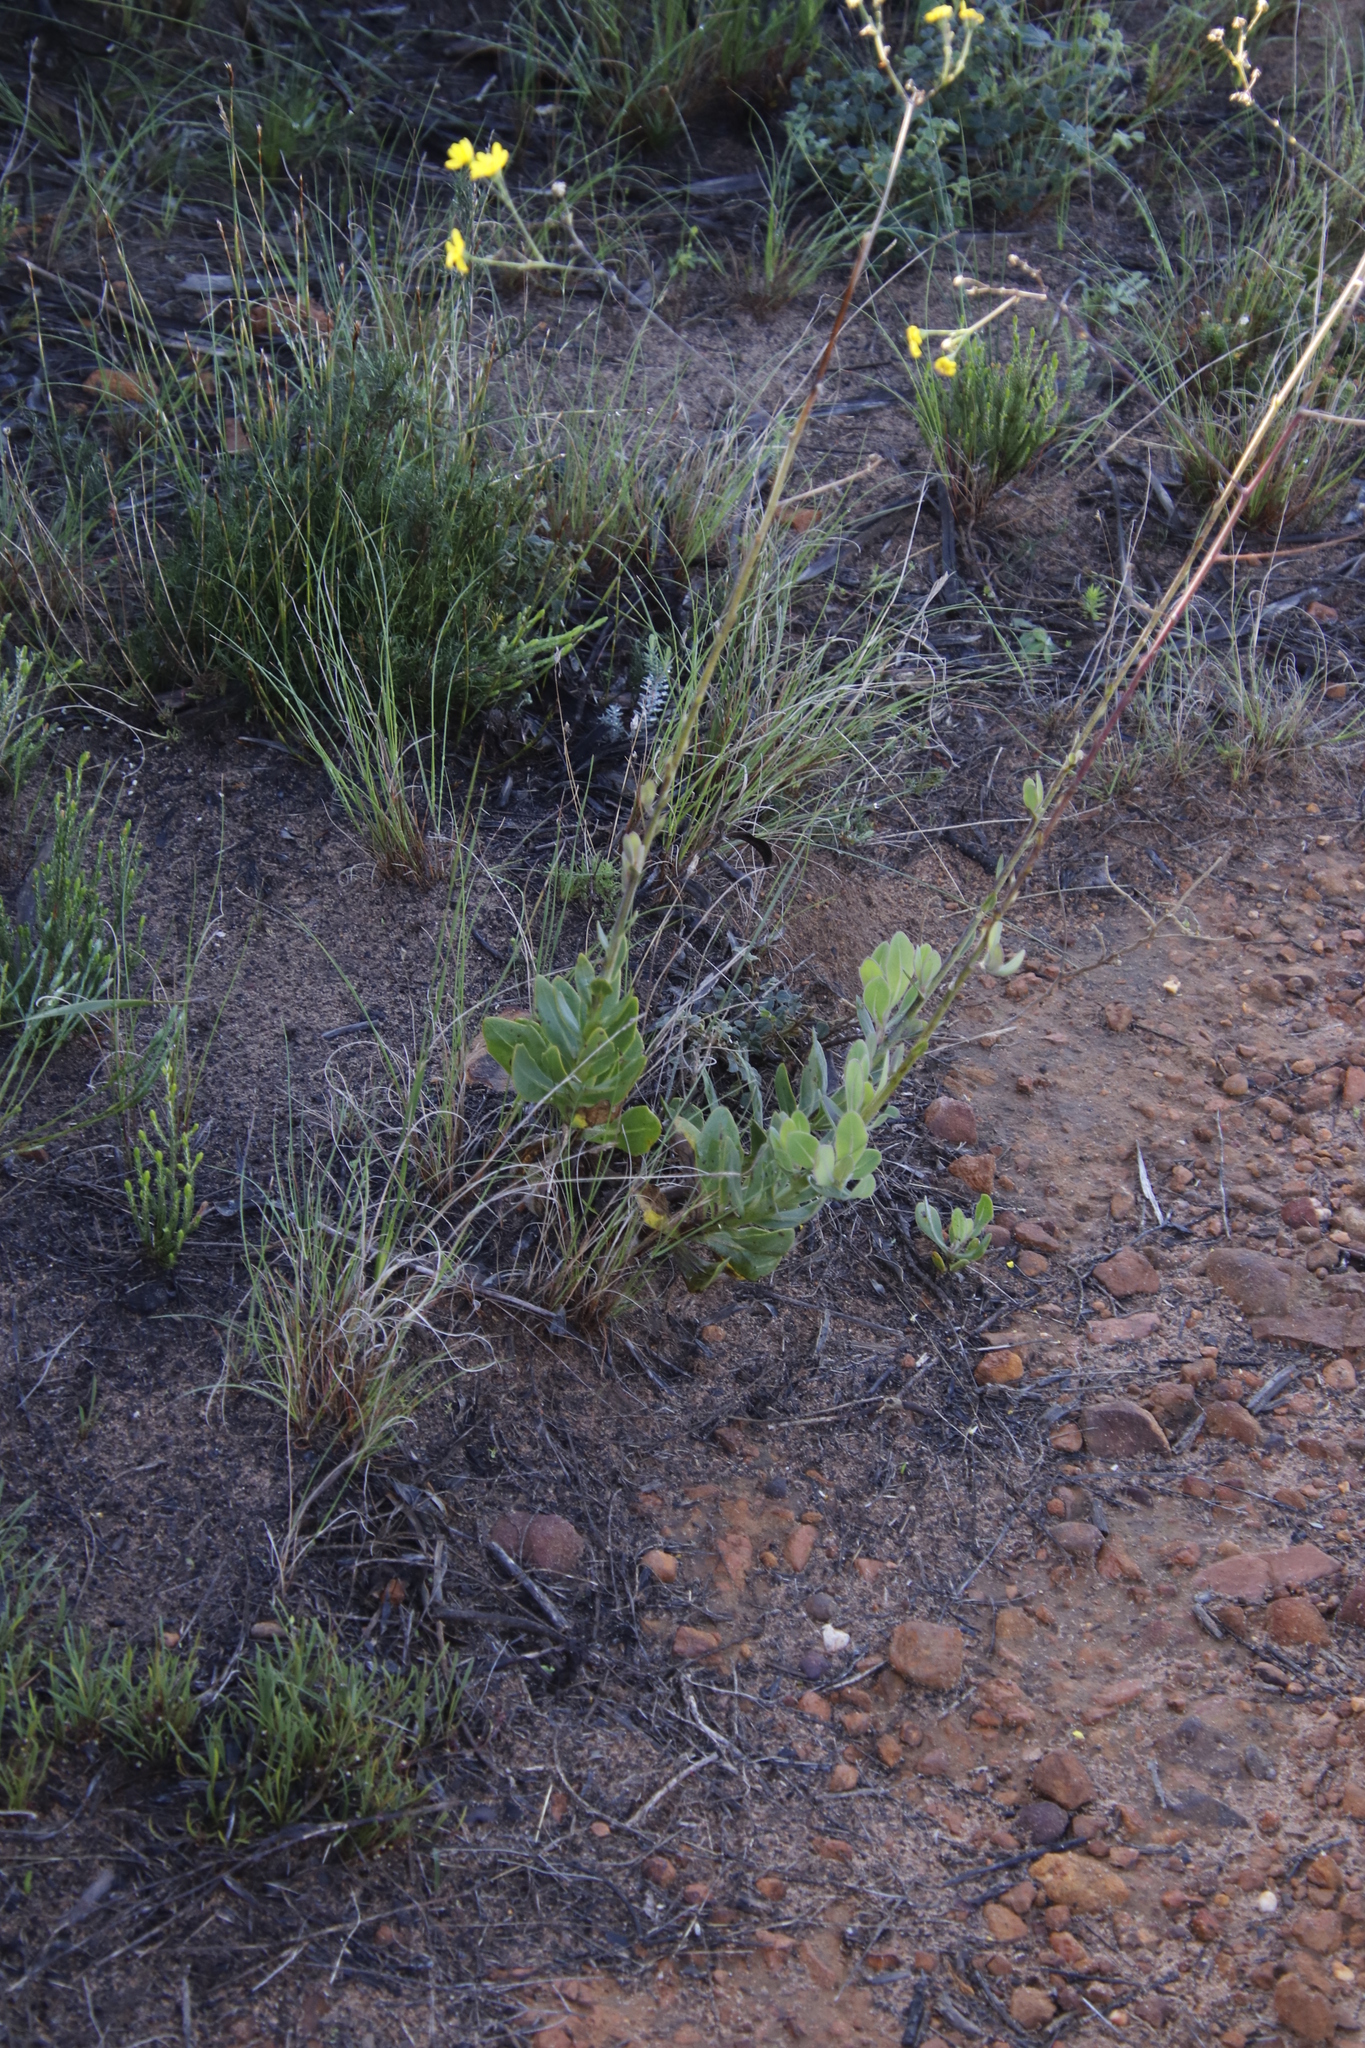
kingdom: Plantae
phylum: Tracheophyta
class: Magnoliopsida
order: Asterales
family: Asteraceae
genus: Othonna
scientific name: Othonna quinquedentata
